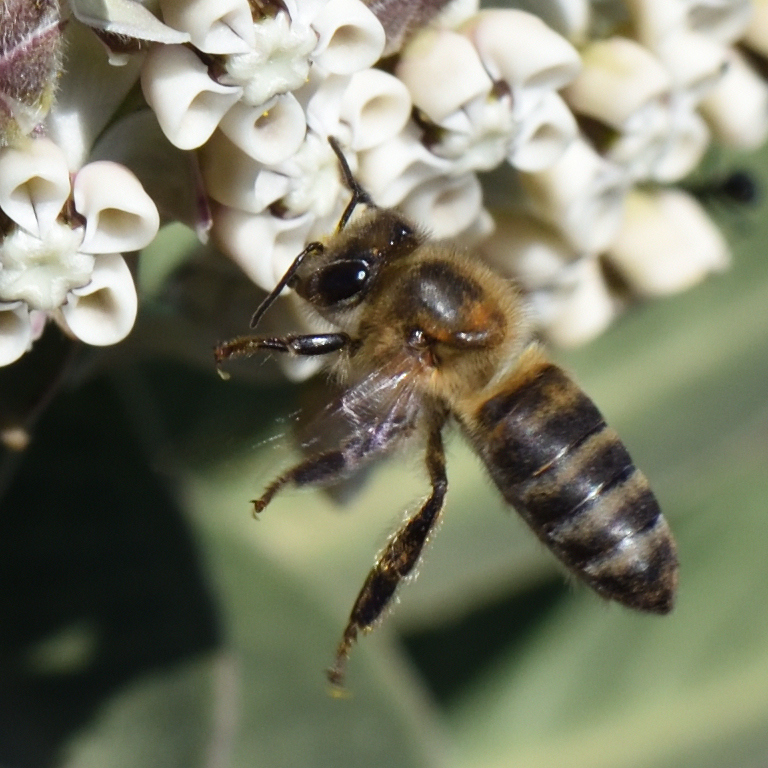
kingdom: Animalia
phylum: Arthropoda
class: Insecta
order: Hymenoptera
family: Apidae
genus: Apis
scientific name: Apis mellifera
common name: Honey bee
